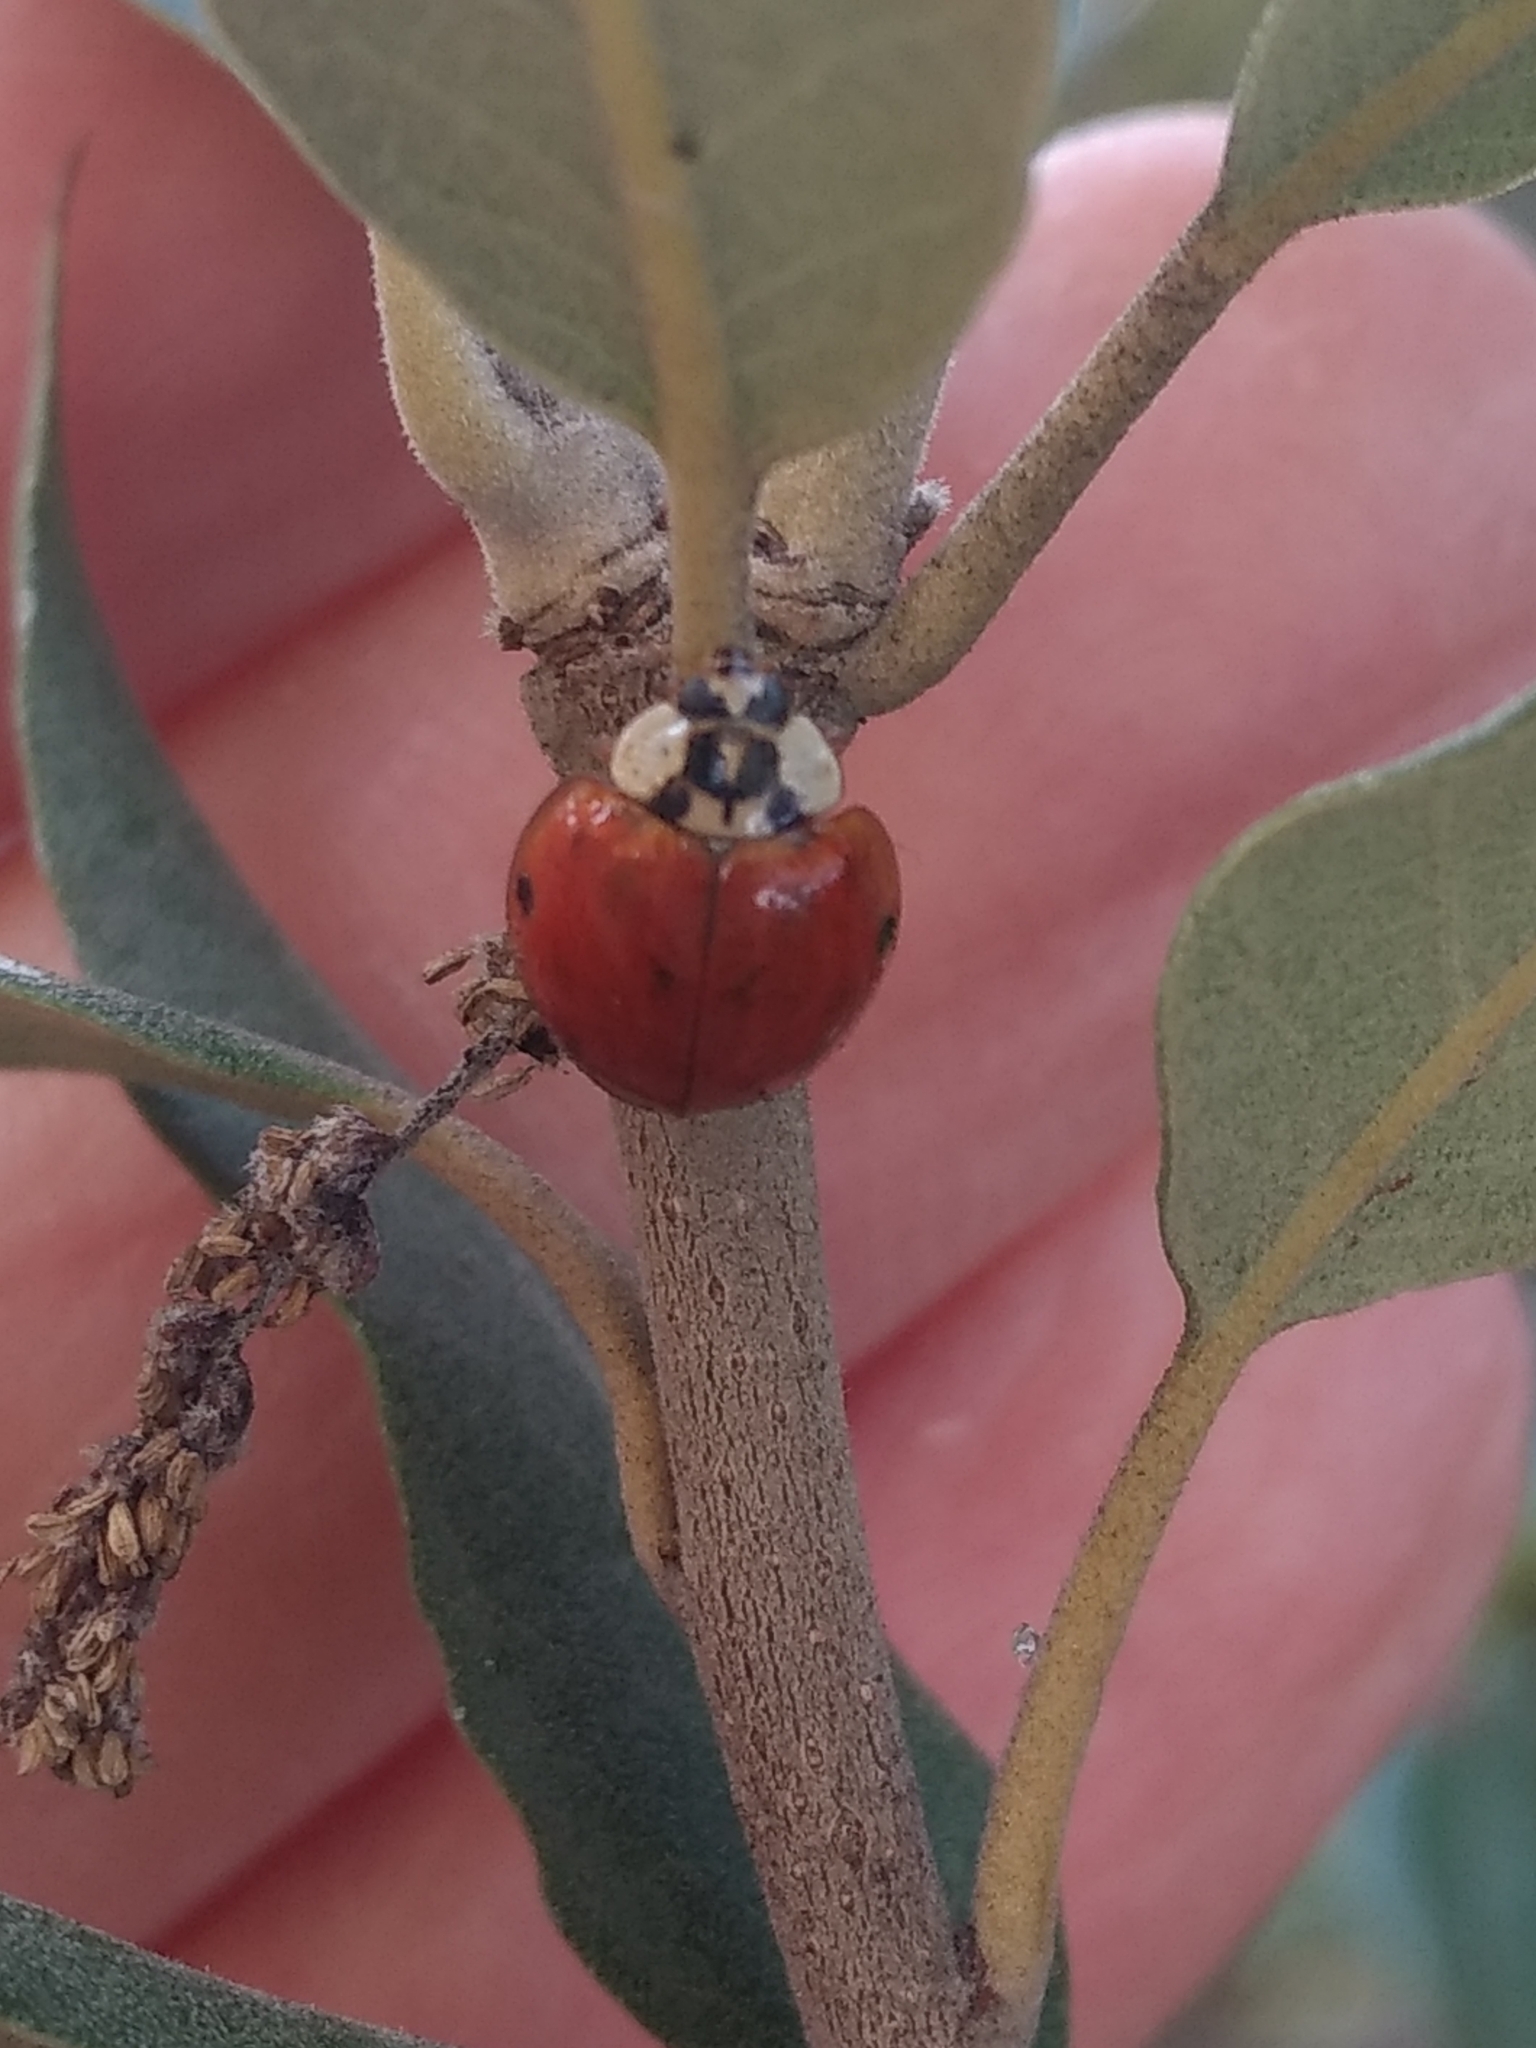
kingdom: Animalia
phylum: Arthropoda
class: Insecta
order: Coleoptera
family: Coccinellidae
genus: Harmonia
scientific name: Harmonia axyridis
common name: Harlequin ladybird
